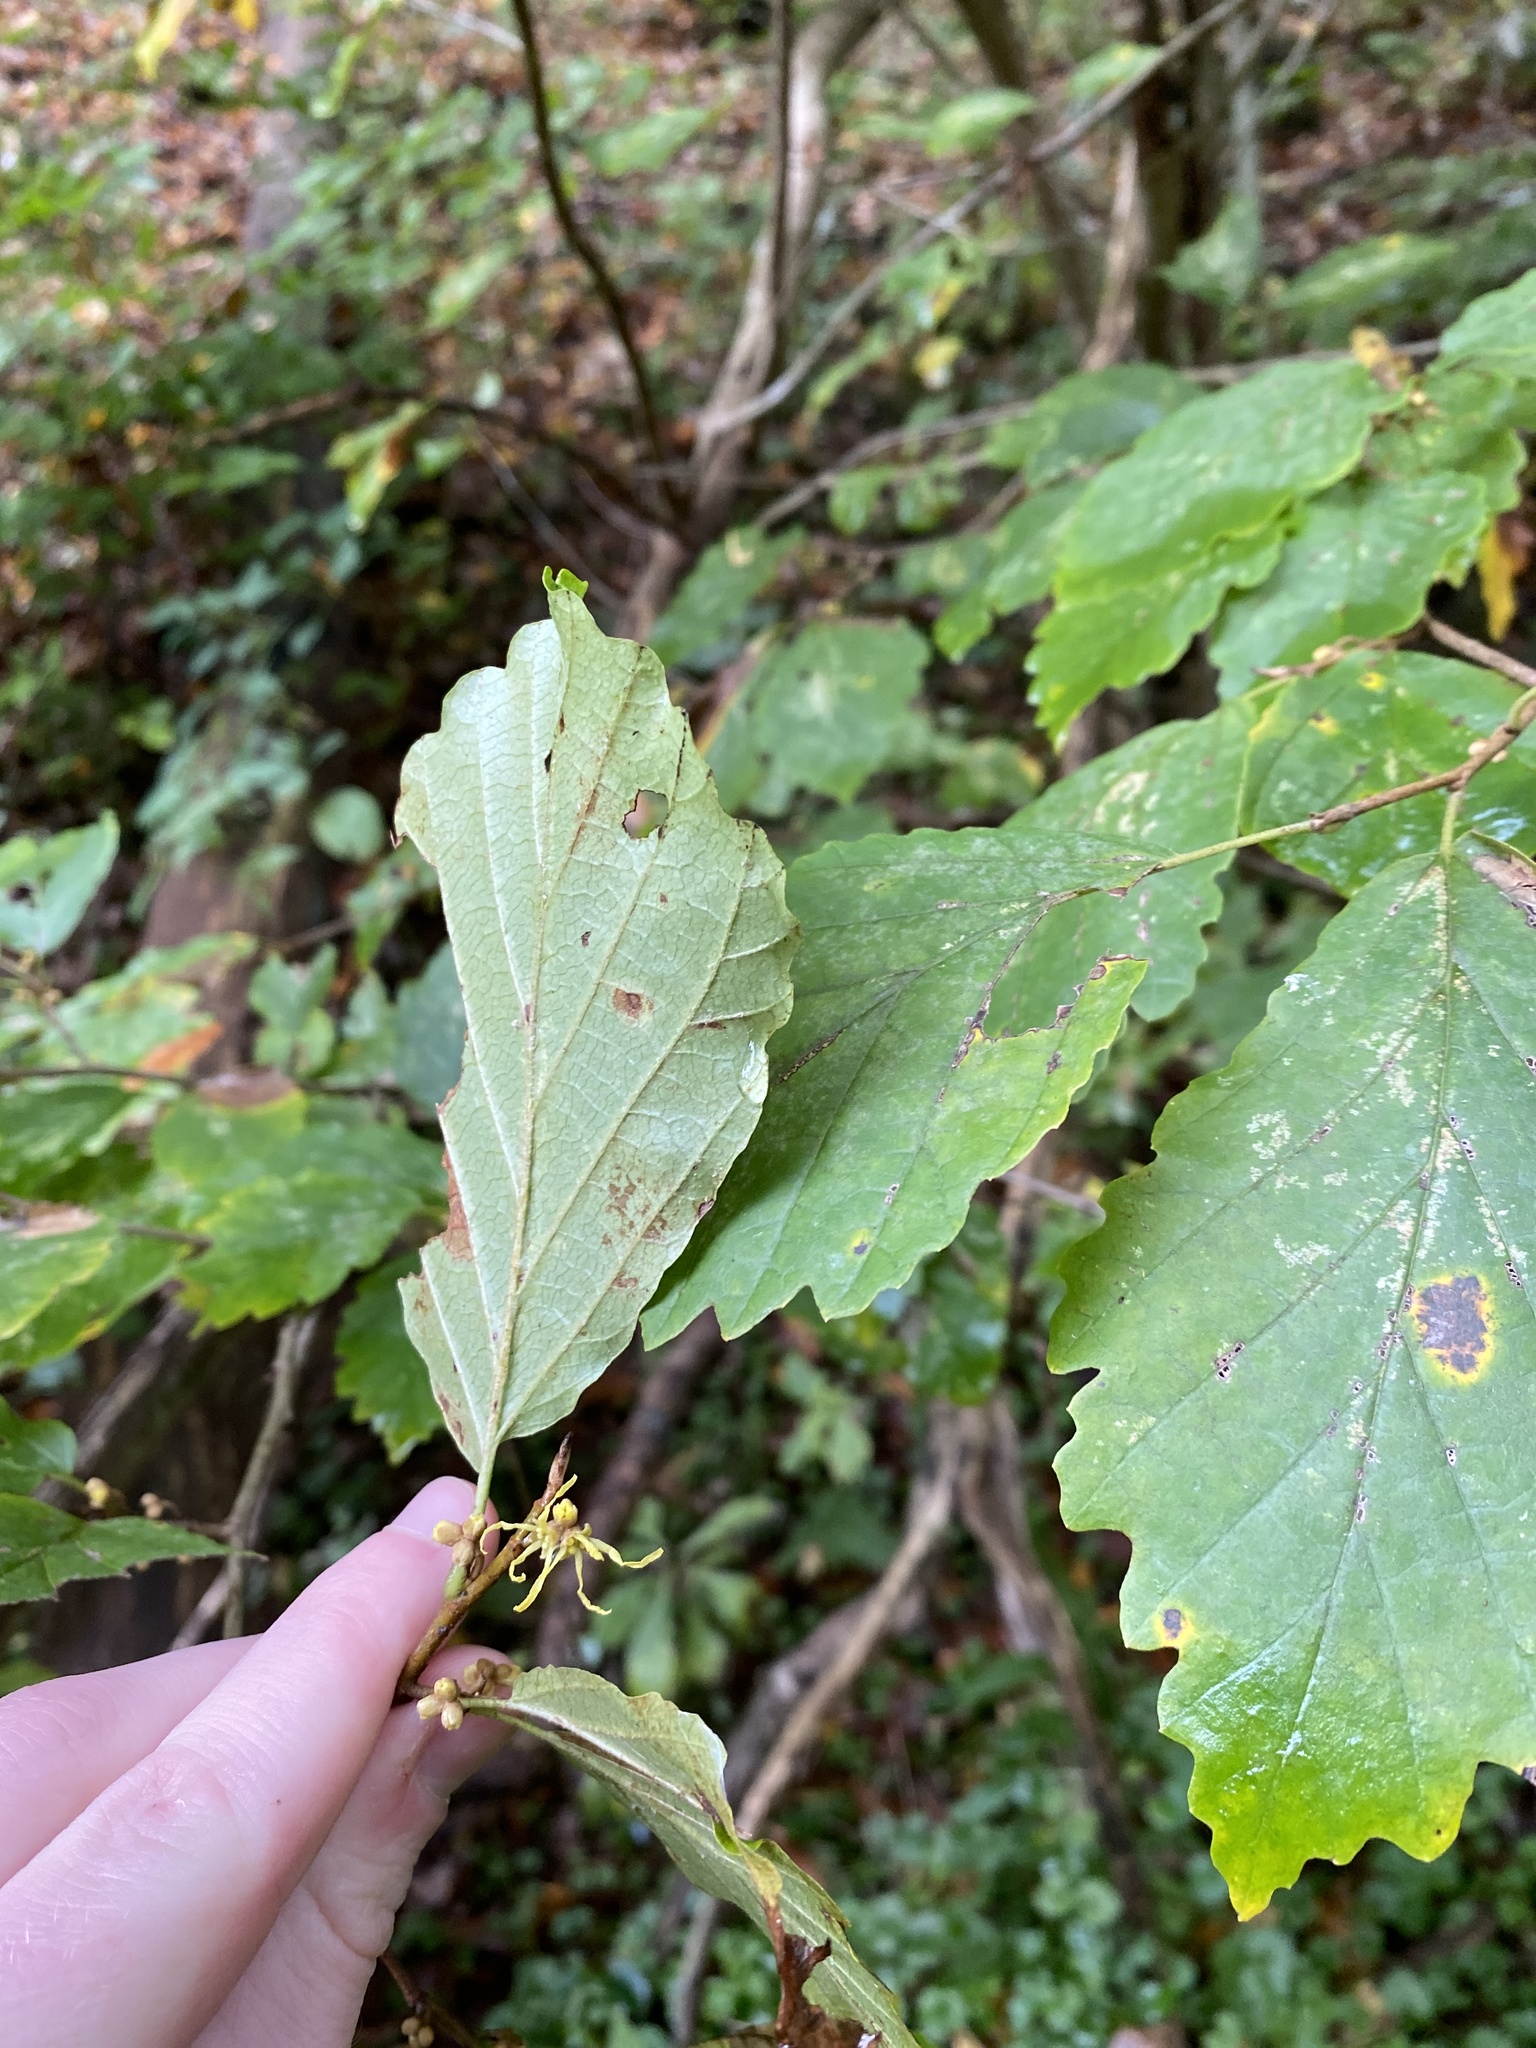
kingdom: Plantae
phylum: Tracheophyta
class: Magnoliopsida
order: Saxifragales
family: Hamamelidaceae
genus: Hamamelis
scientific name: Hamamelis virginiana
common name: Witch-hazel
